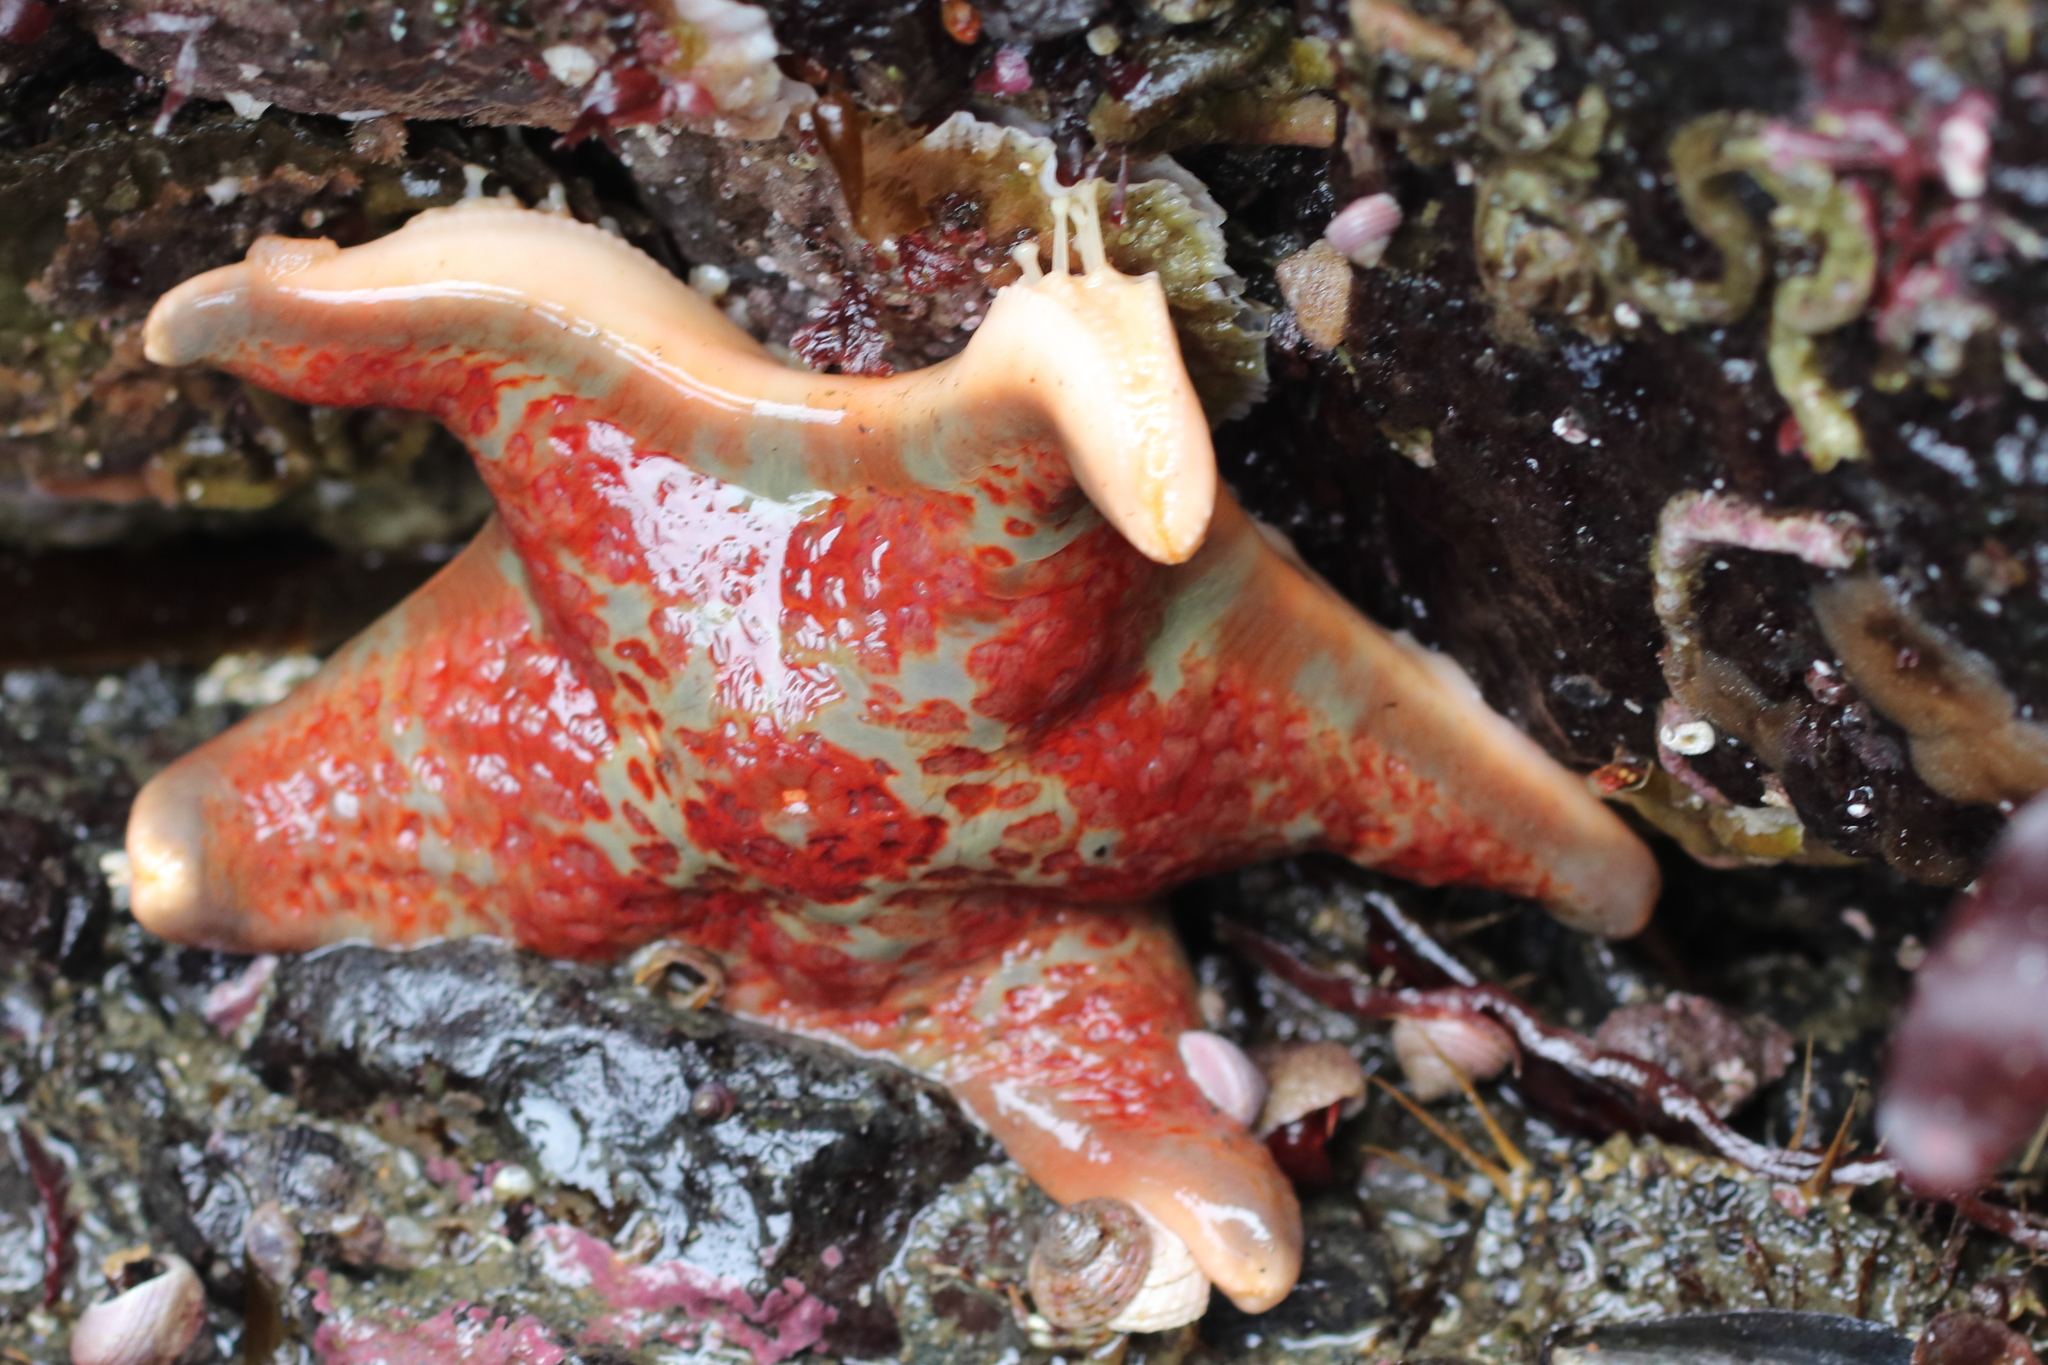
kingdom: Animalia
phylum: Echinodermata
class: Asteroidea
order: Valvatida
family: Asteropseidae
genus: Dermasterias
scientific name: Dermasterias imbricata
